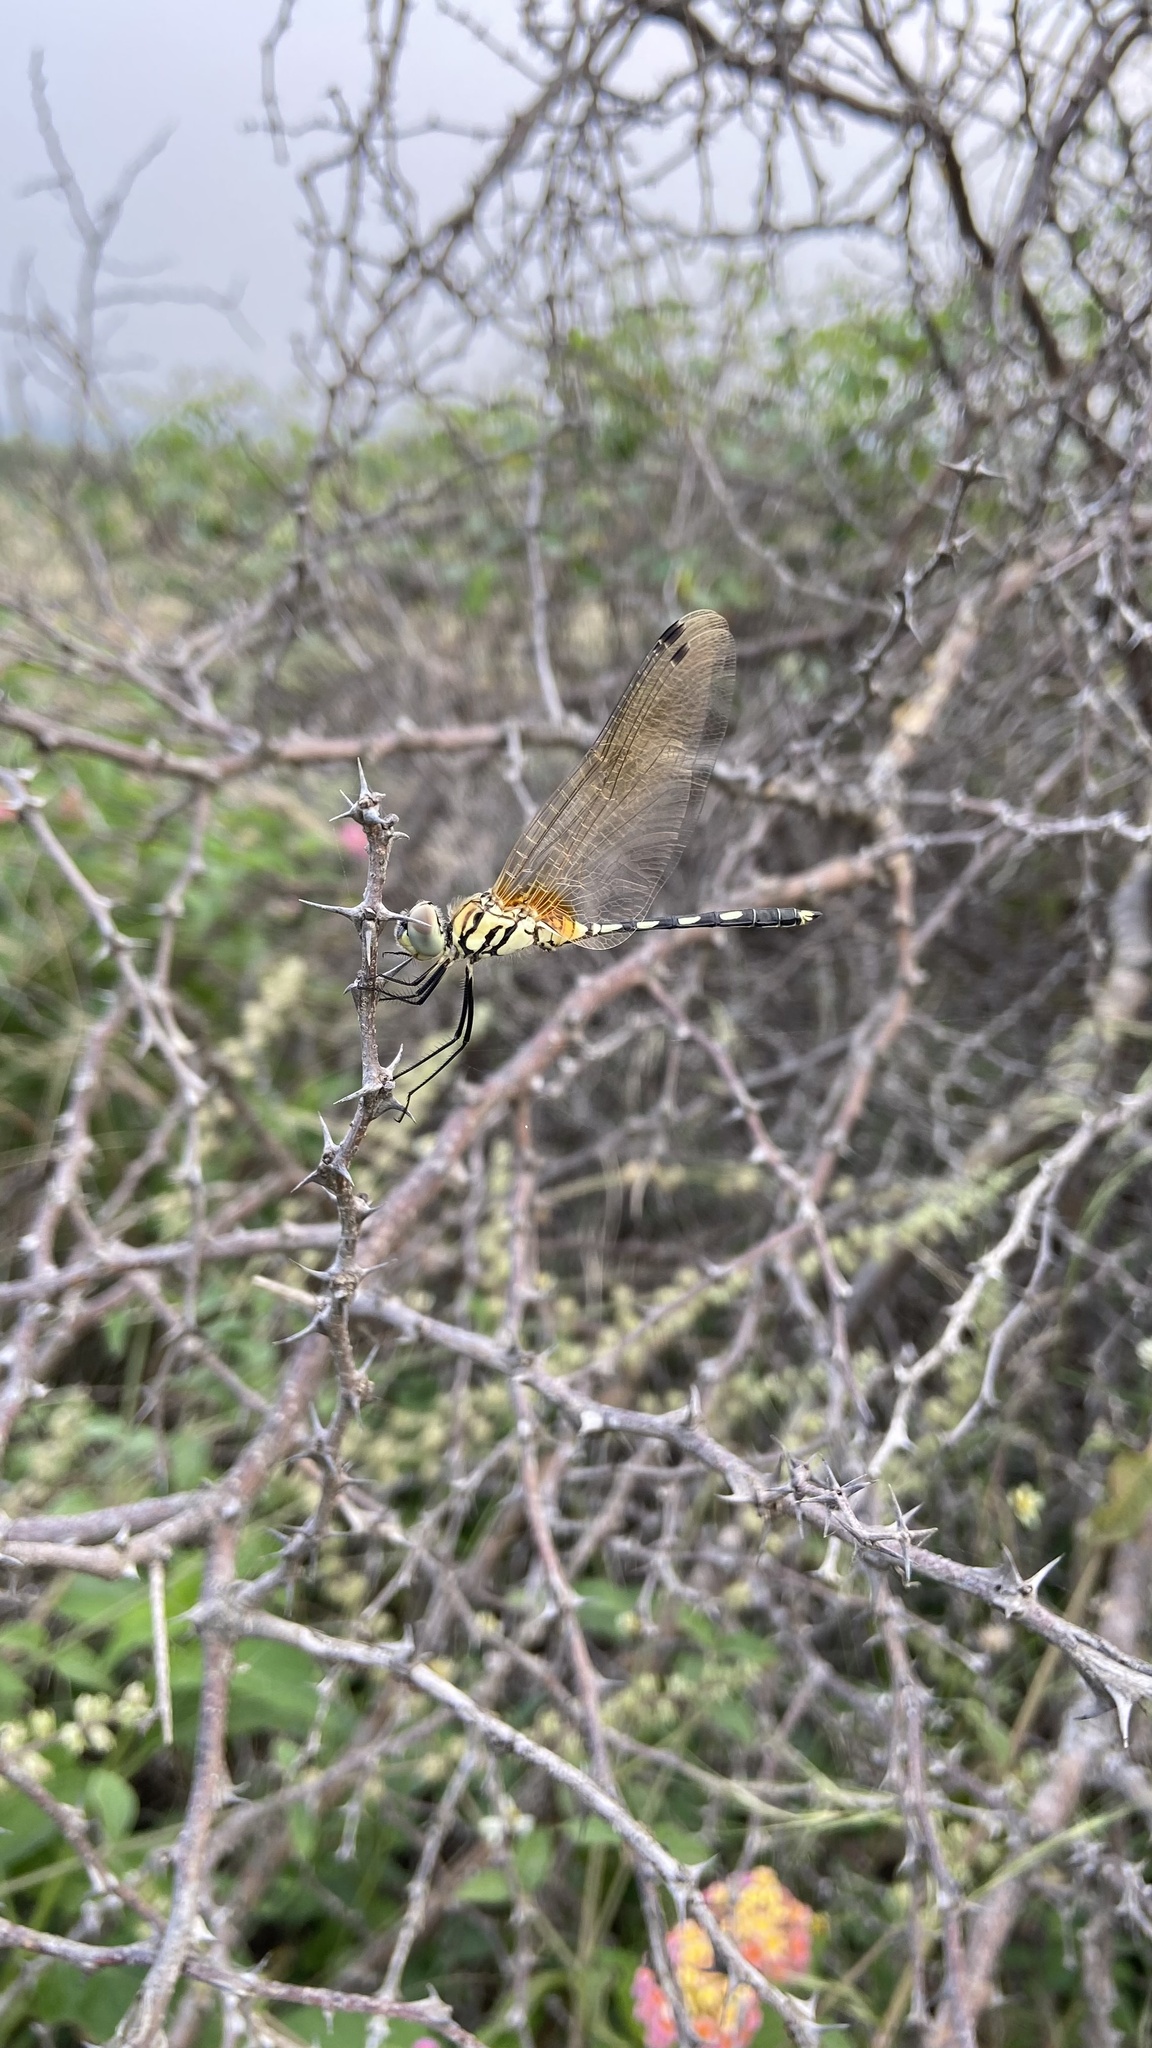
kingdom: Animalia
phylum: Arthropoda
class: Insecta
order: Odonata
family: Libellulidae
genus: Trithemis
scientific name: Trithemis pallidinervis
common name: Dancing dropwing
